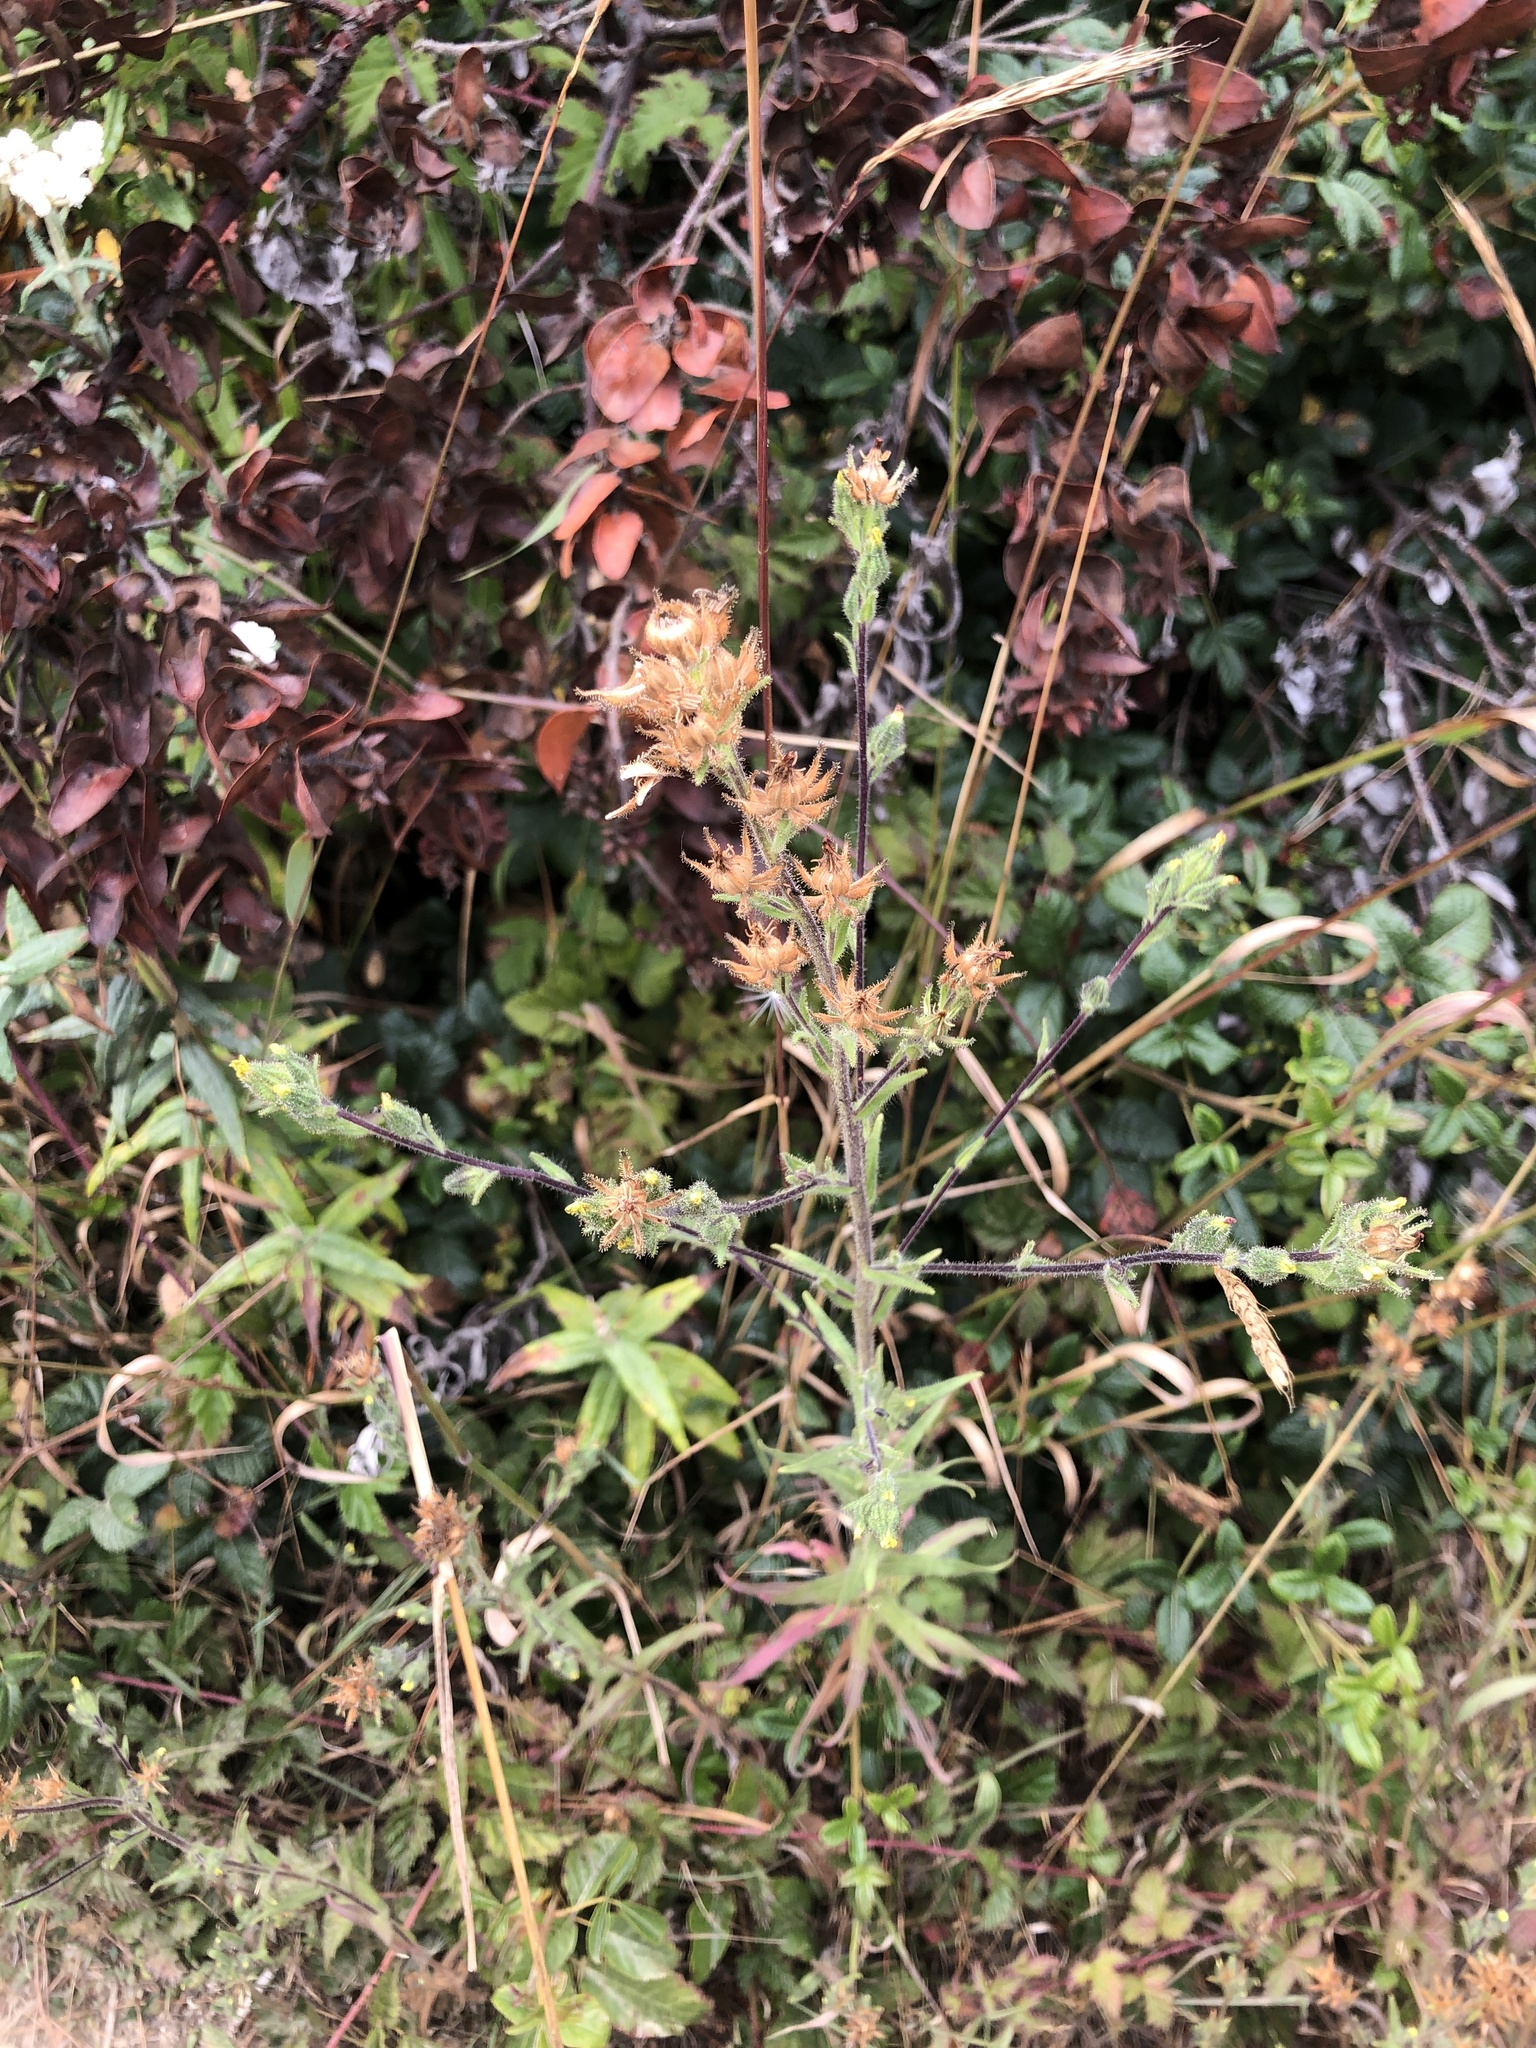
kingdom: Plantae
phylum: Tracheophyta
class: Magnoliopsida
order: Asterales
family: Asteraceae
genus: Madia
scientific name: Madia sativa
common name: Coast tarweed
